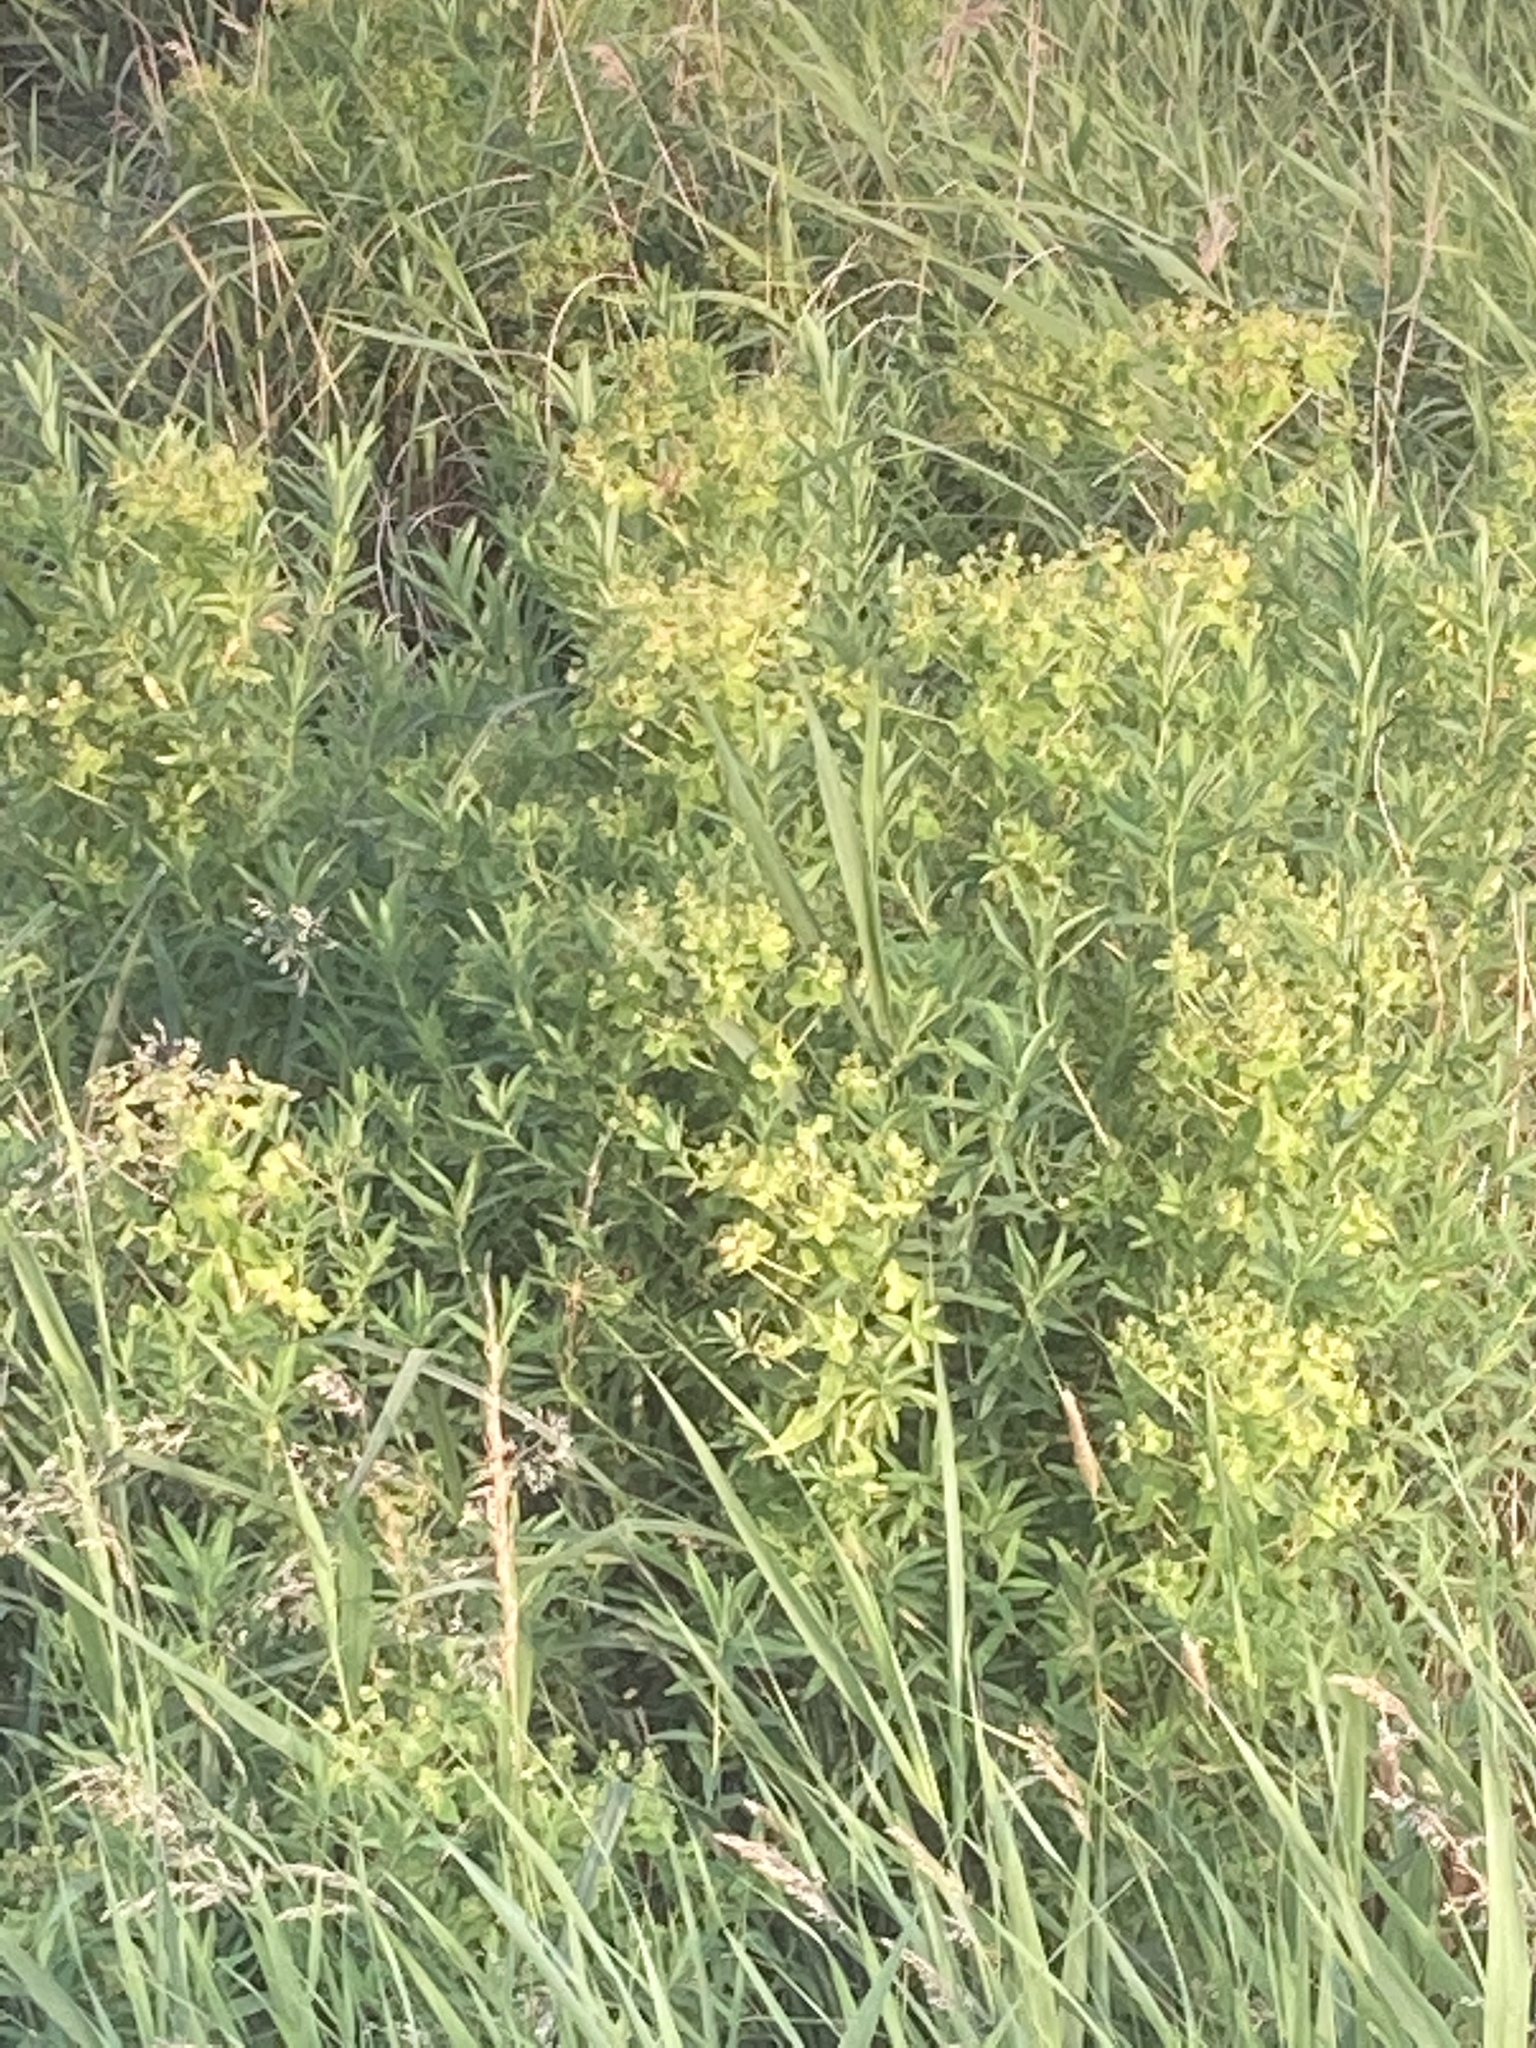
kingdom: Plantae
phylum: Tracheophyta
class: Magnoliopsida
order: Malpighiales
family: Euphorbiaceae
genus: Euphorbia
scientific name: Euphorbia palustris
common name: Marsh spurge
